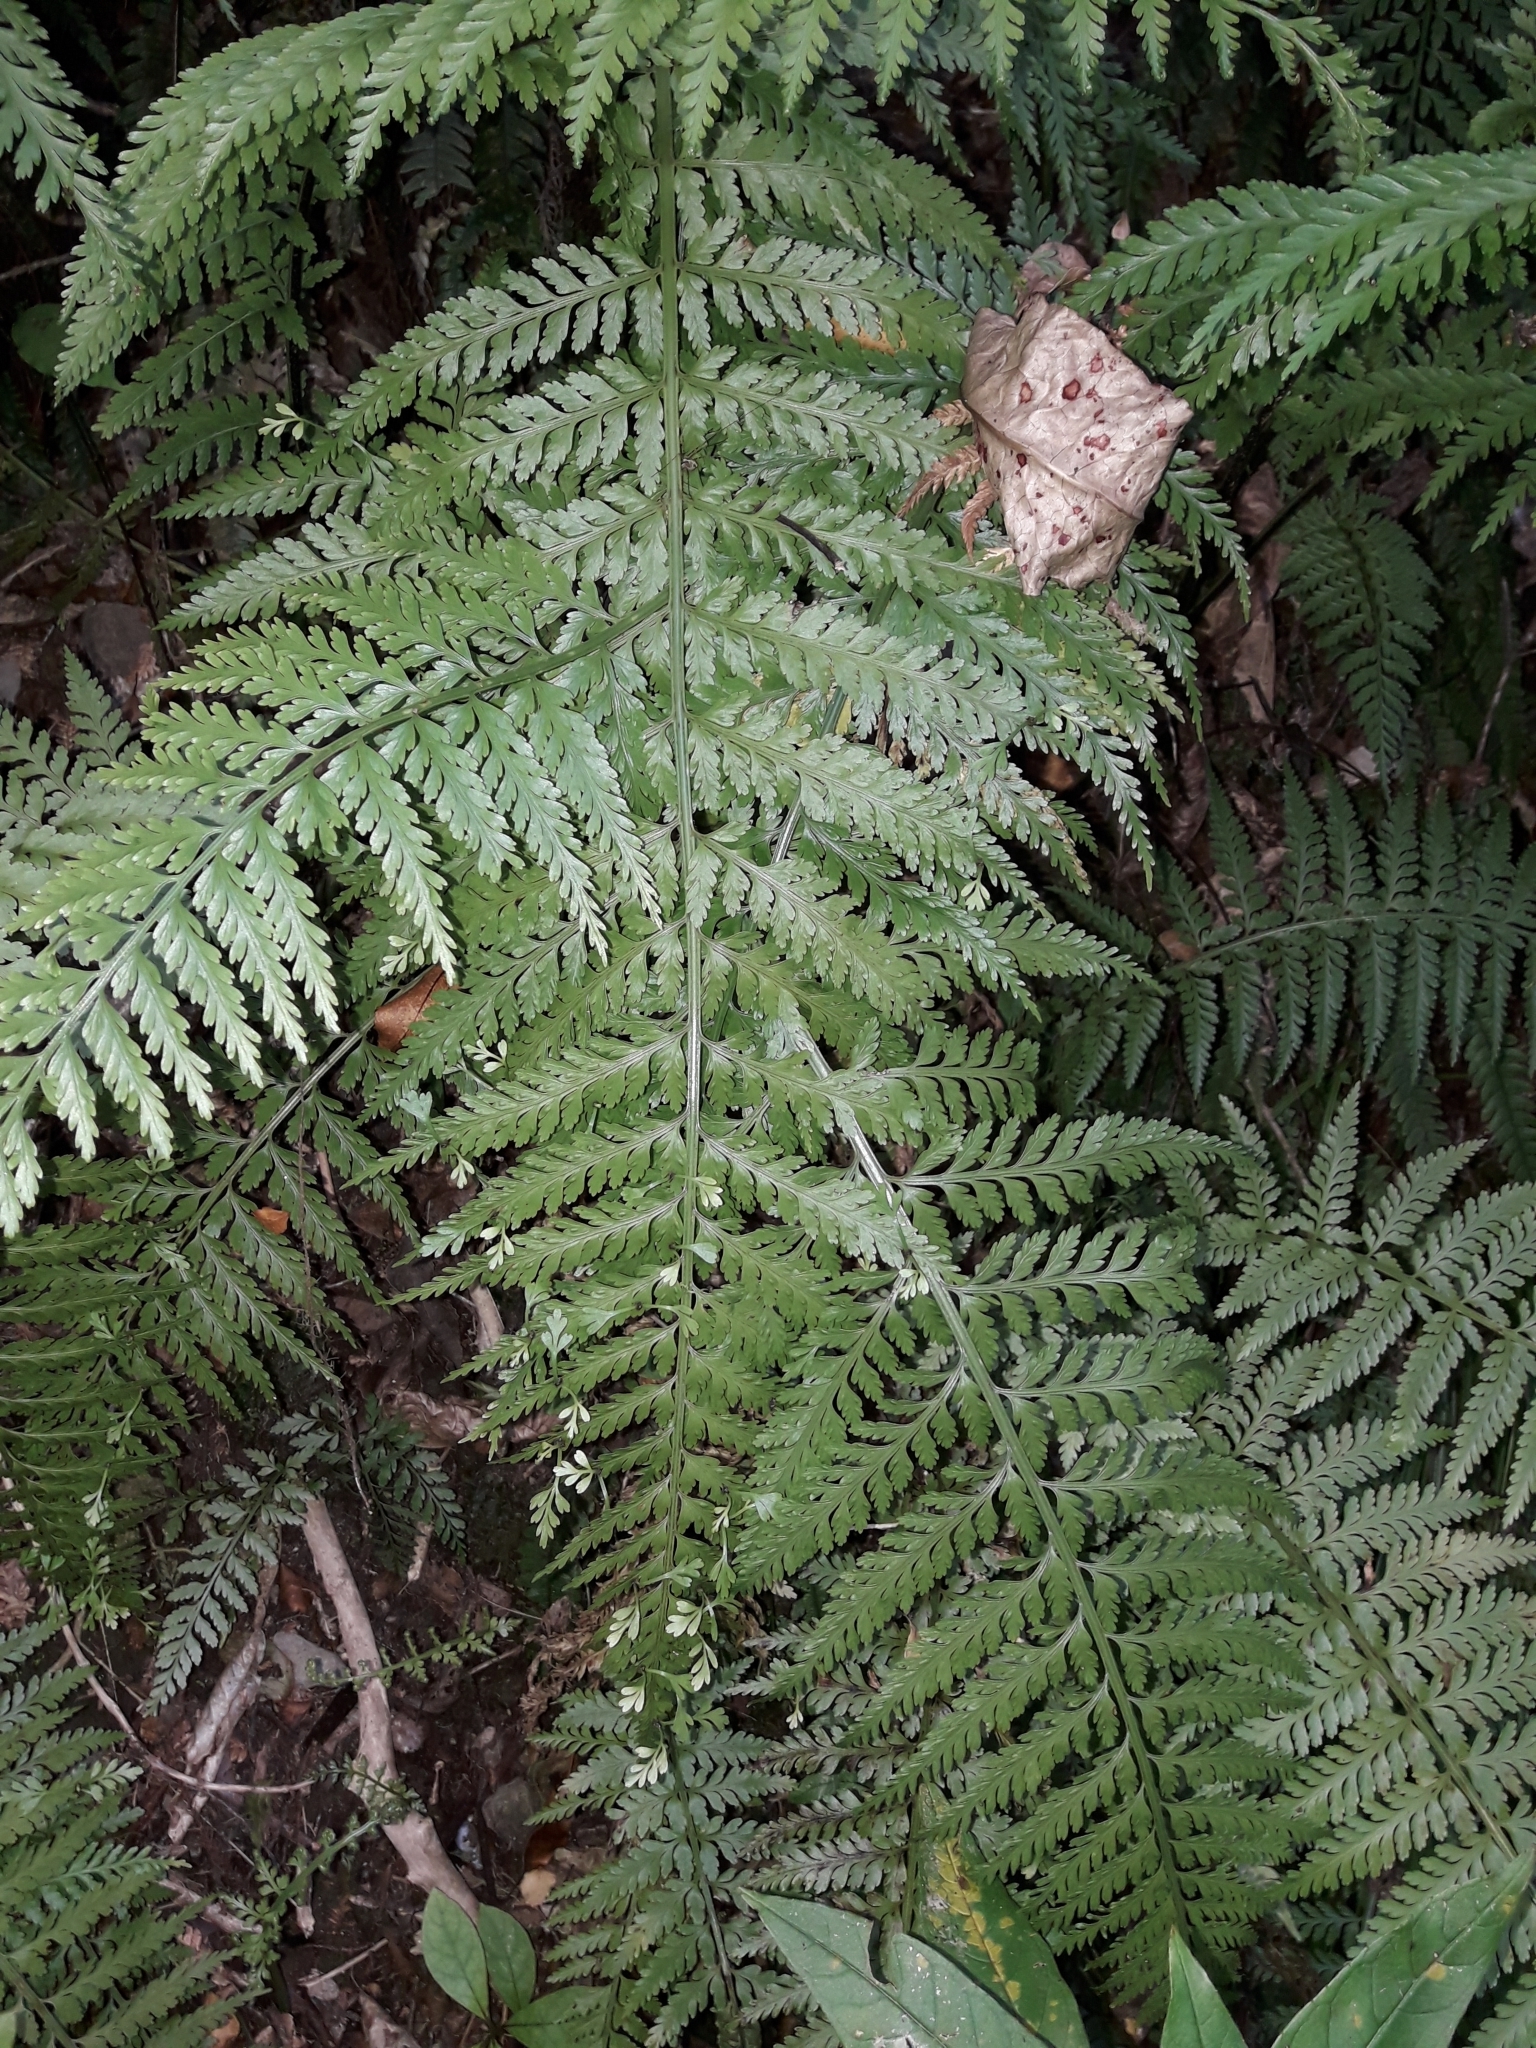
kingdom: Plantae
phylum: Tracheophyta
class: Polypodiopsida
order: Polypodiales
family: Aspleniaceae
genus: Asplenium
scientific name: Asplenium bulbiferum
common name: Mother fern
